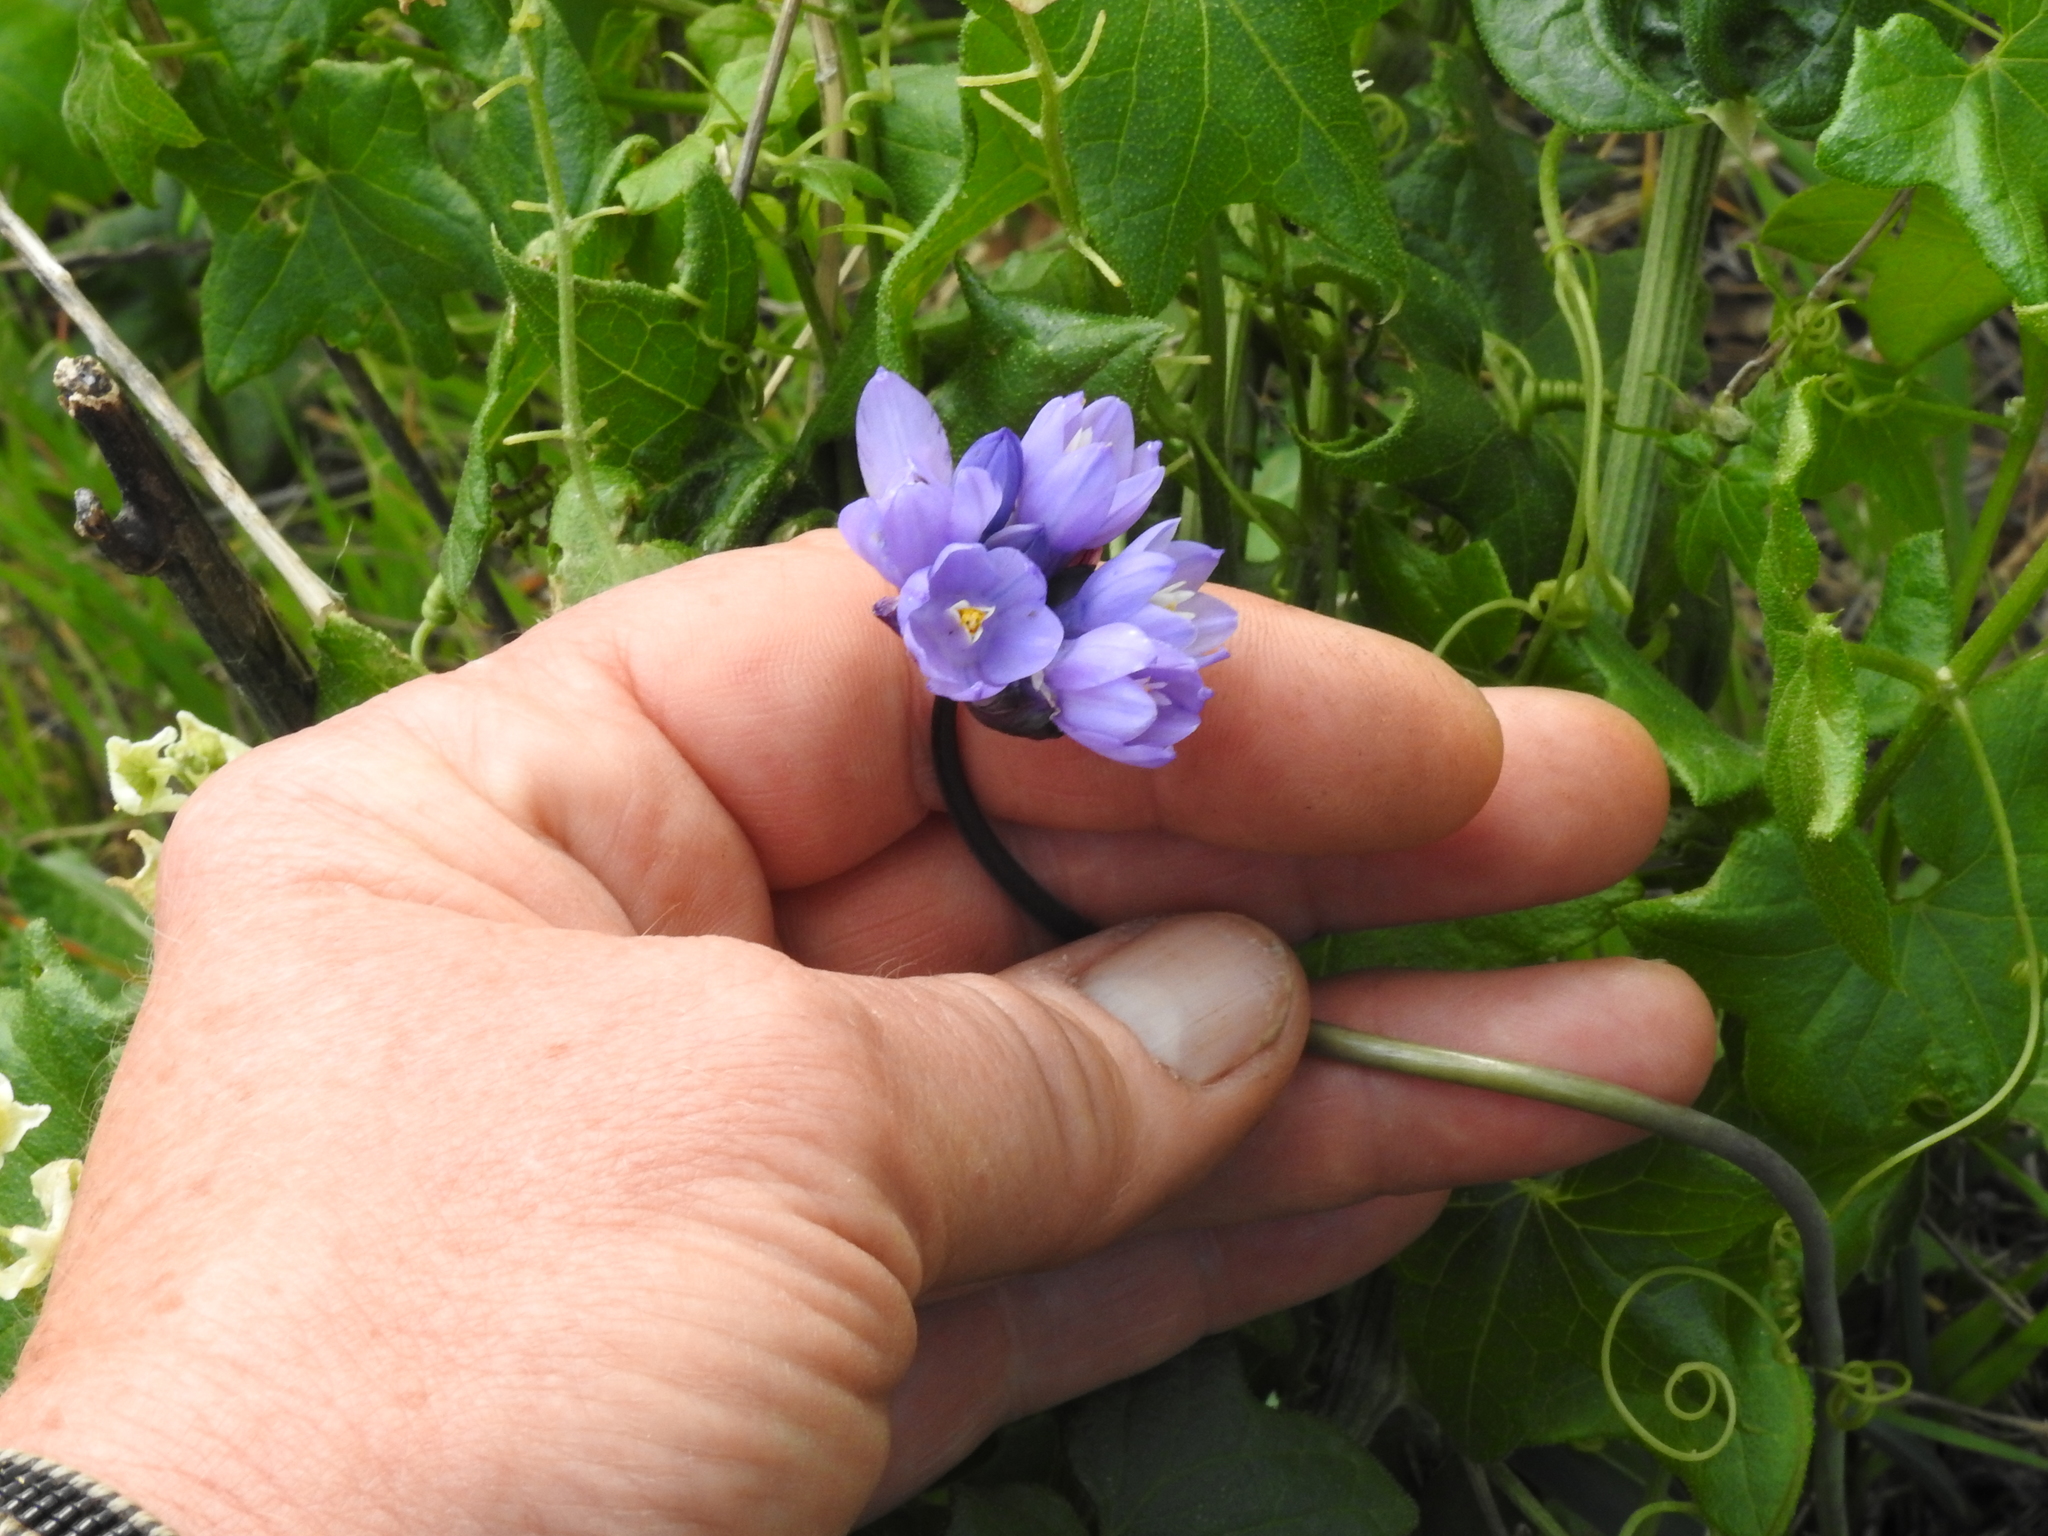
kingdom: Plantae
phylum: Tracheophyta
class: Liliopsida
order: Asparagales
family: Asparagaceae
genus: Dipterostemon
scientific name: Dipterostemon capitatus
